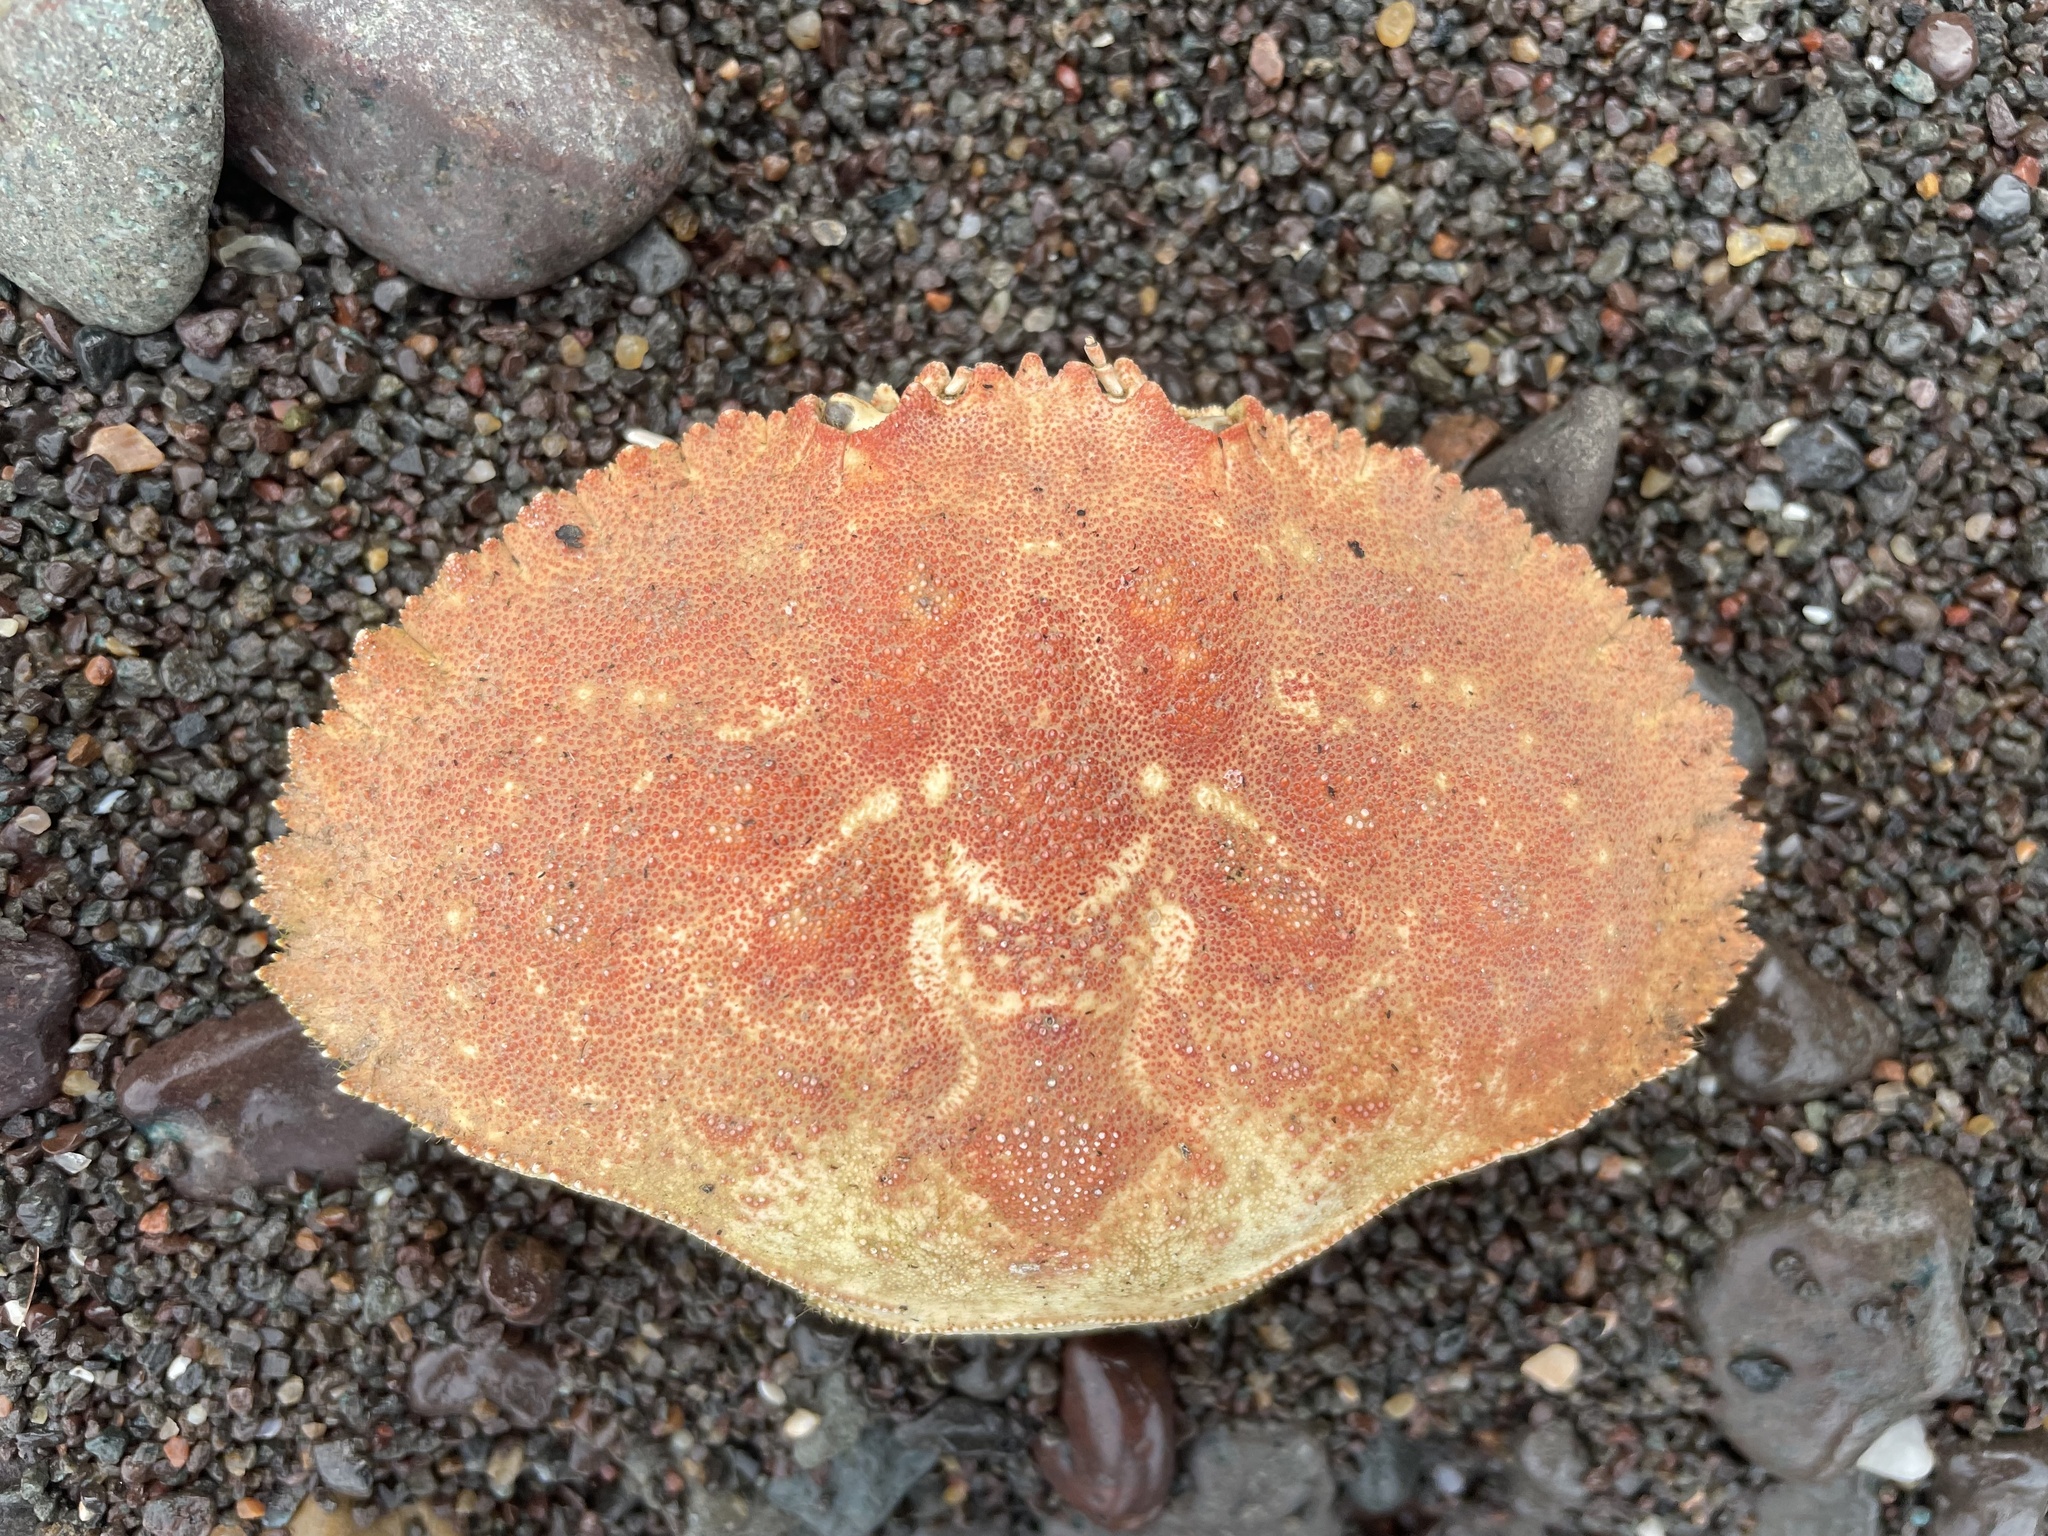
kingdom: Animalia
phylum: Arthropoda
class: Malacostraca
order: Decapoda
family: Cancridae
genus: Cancer
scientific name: Cancer borealis
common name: Jonah crab
